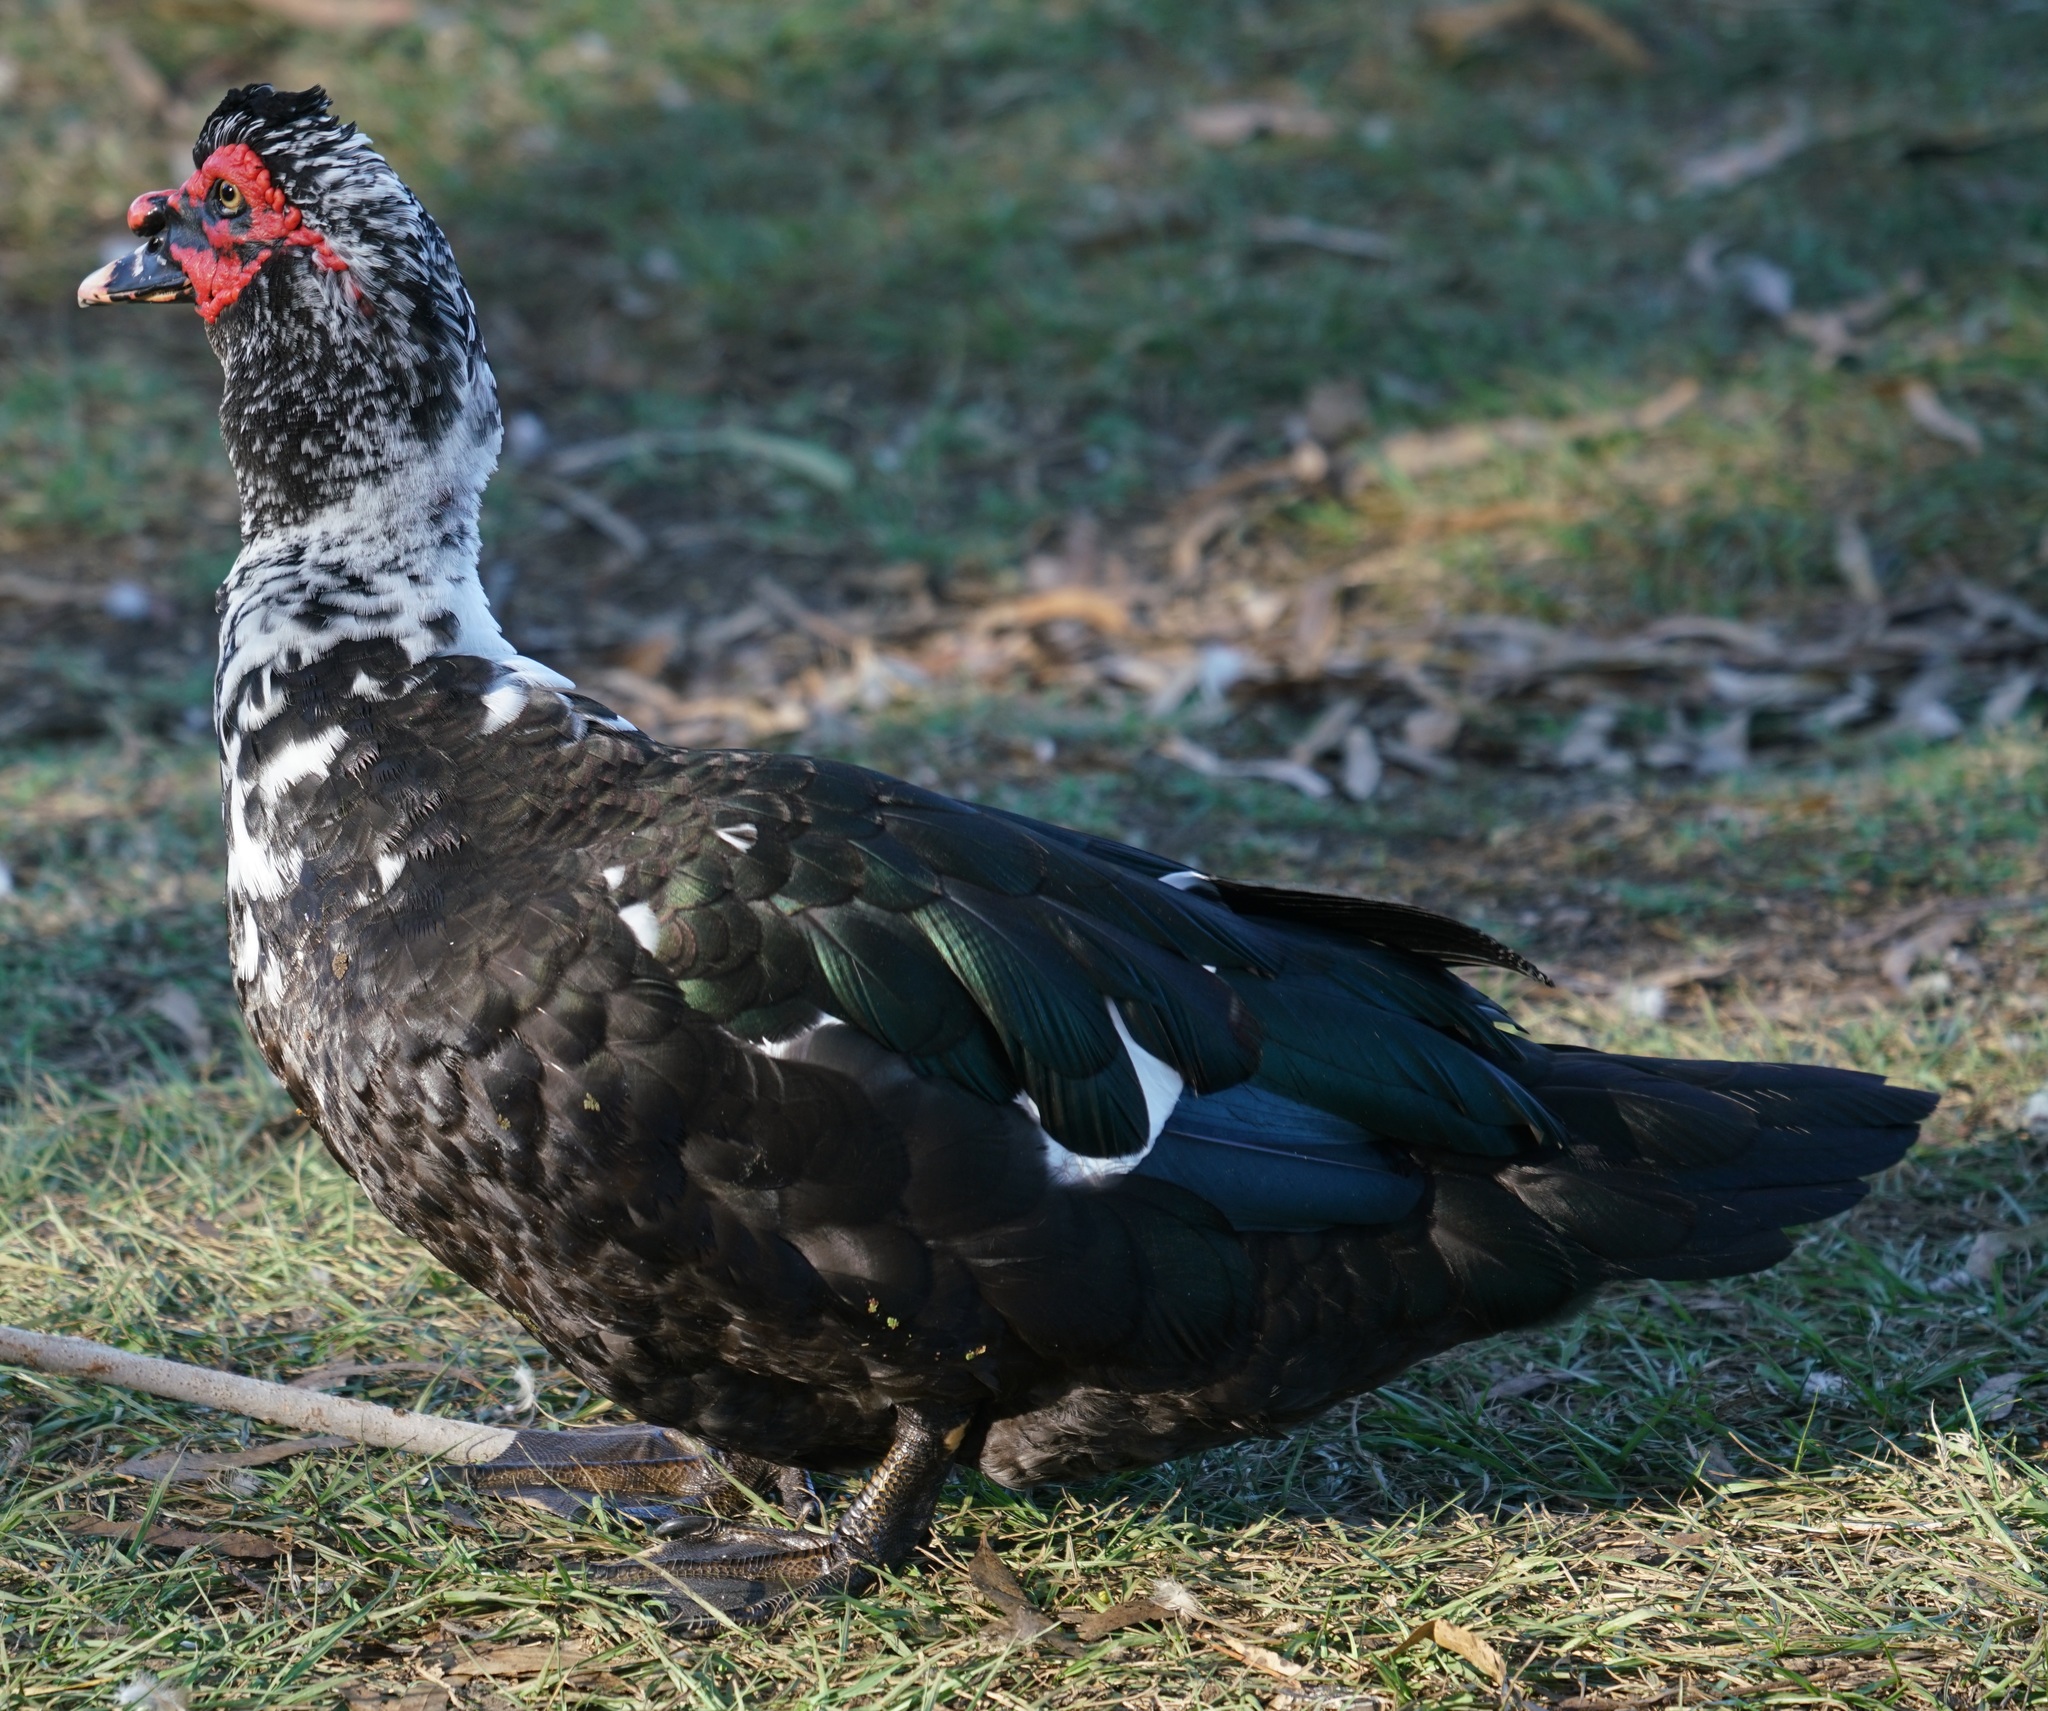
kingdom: Animalia
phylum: Chordata
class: Aves
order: Anseriformes
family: Anatidae
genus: Cairina
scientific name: Cairina moschata
